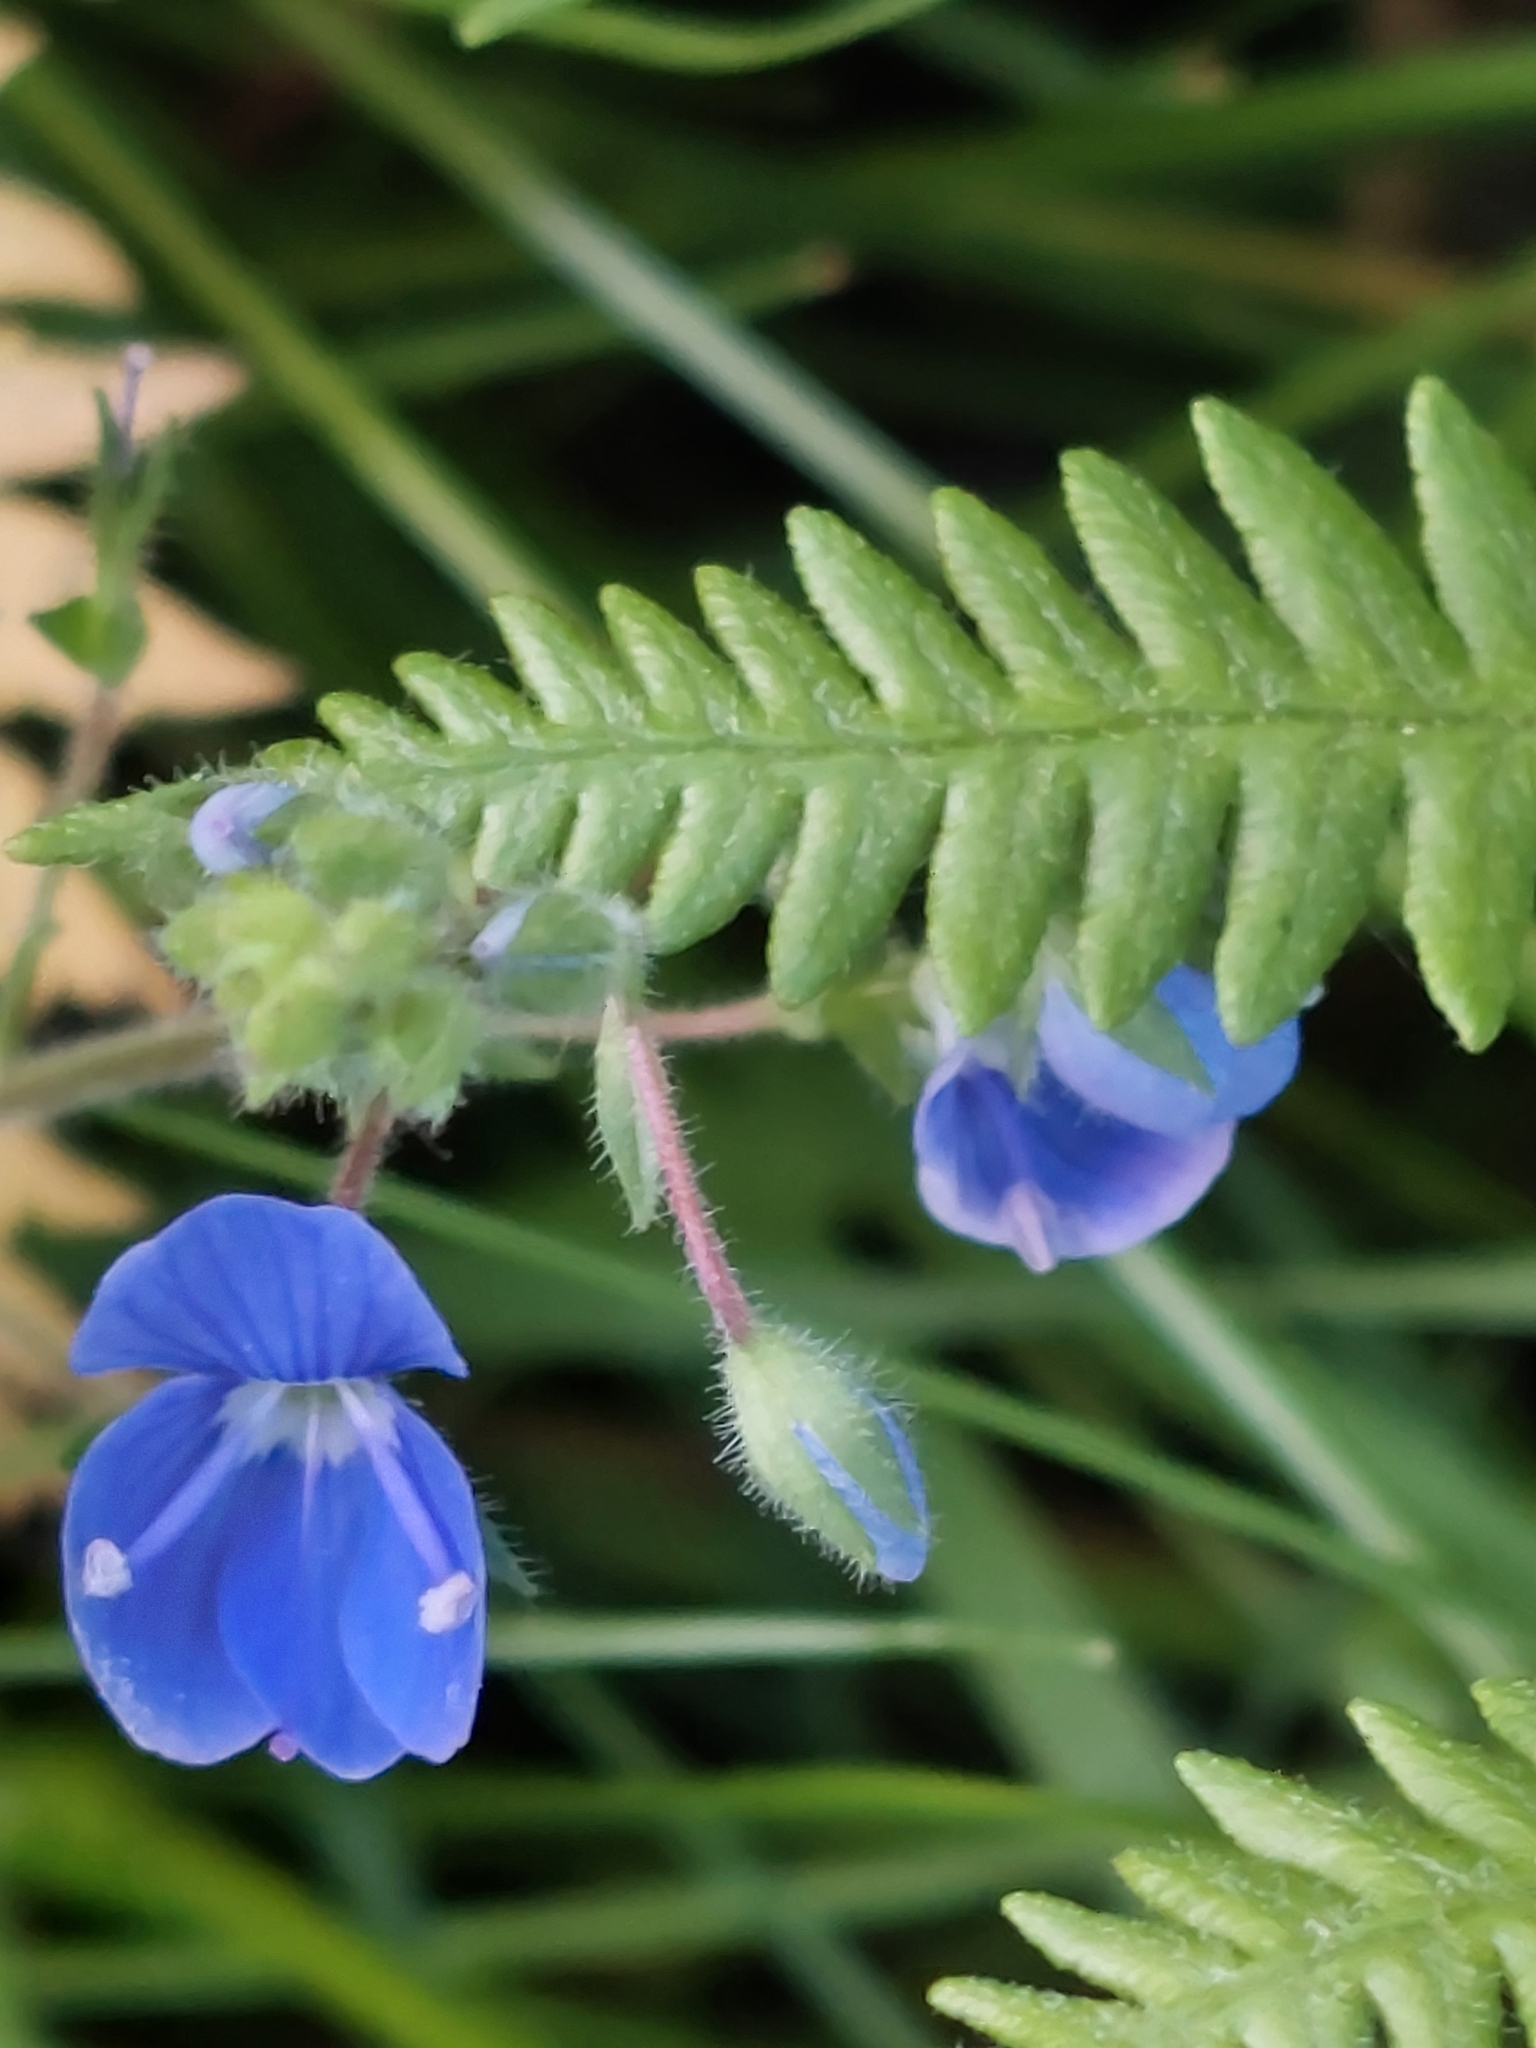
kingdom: Plantae
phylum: Tracheophyta
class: Magnoliopsida
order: Lamiales
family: Plantaginaceae
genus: Veronica
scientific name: Veronica chamaedrys
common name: Germander speedwell
